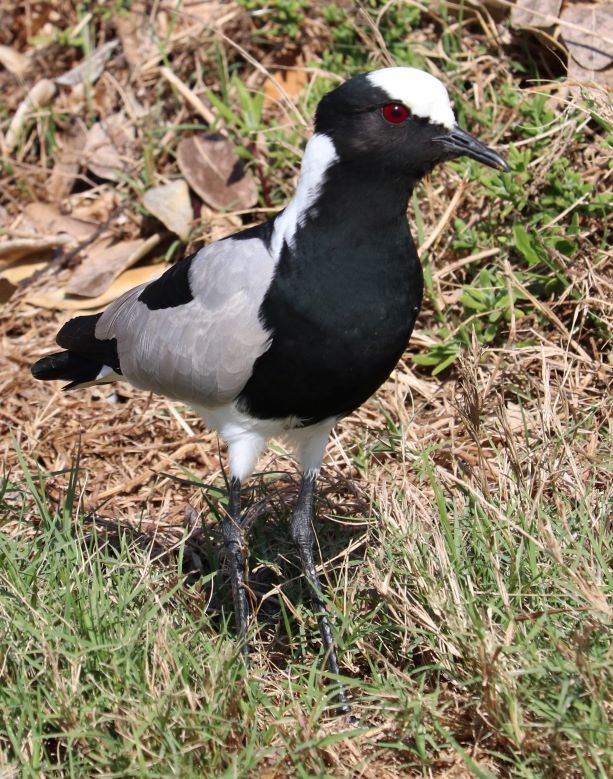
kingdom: Animalia
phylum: Chordata
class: Aves
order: Charadriiformes
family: Charadriidae
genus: Vanellus
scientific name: Vanellus armatus
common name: Blacksmith lapwing
